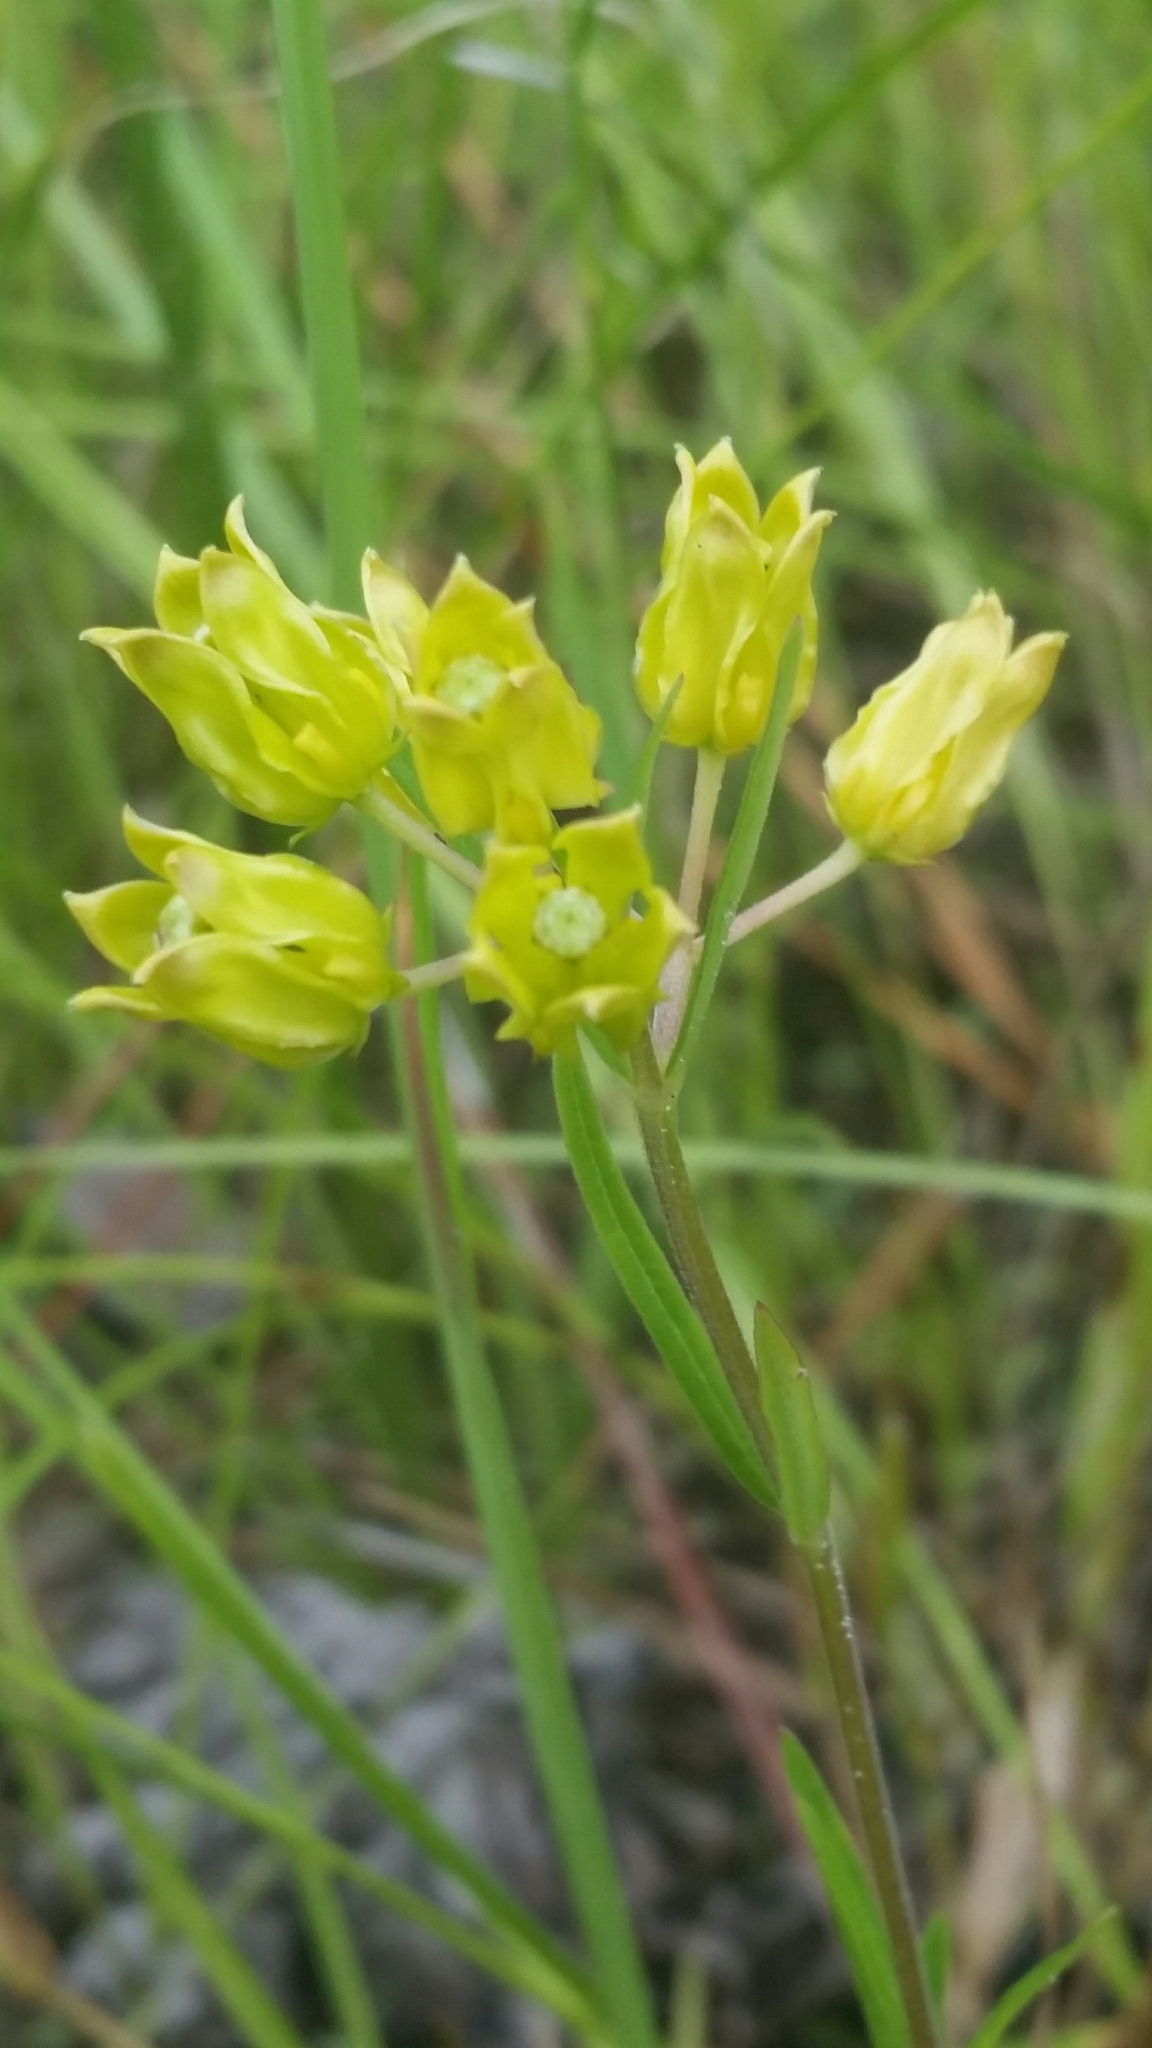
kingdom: Plantae
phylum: Tracheophyta
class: Magnoliopsida
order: Gentianales
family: Apocynaceae
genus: Asclepias
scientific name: Asclepias pedicellata
